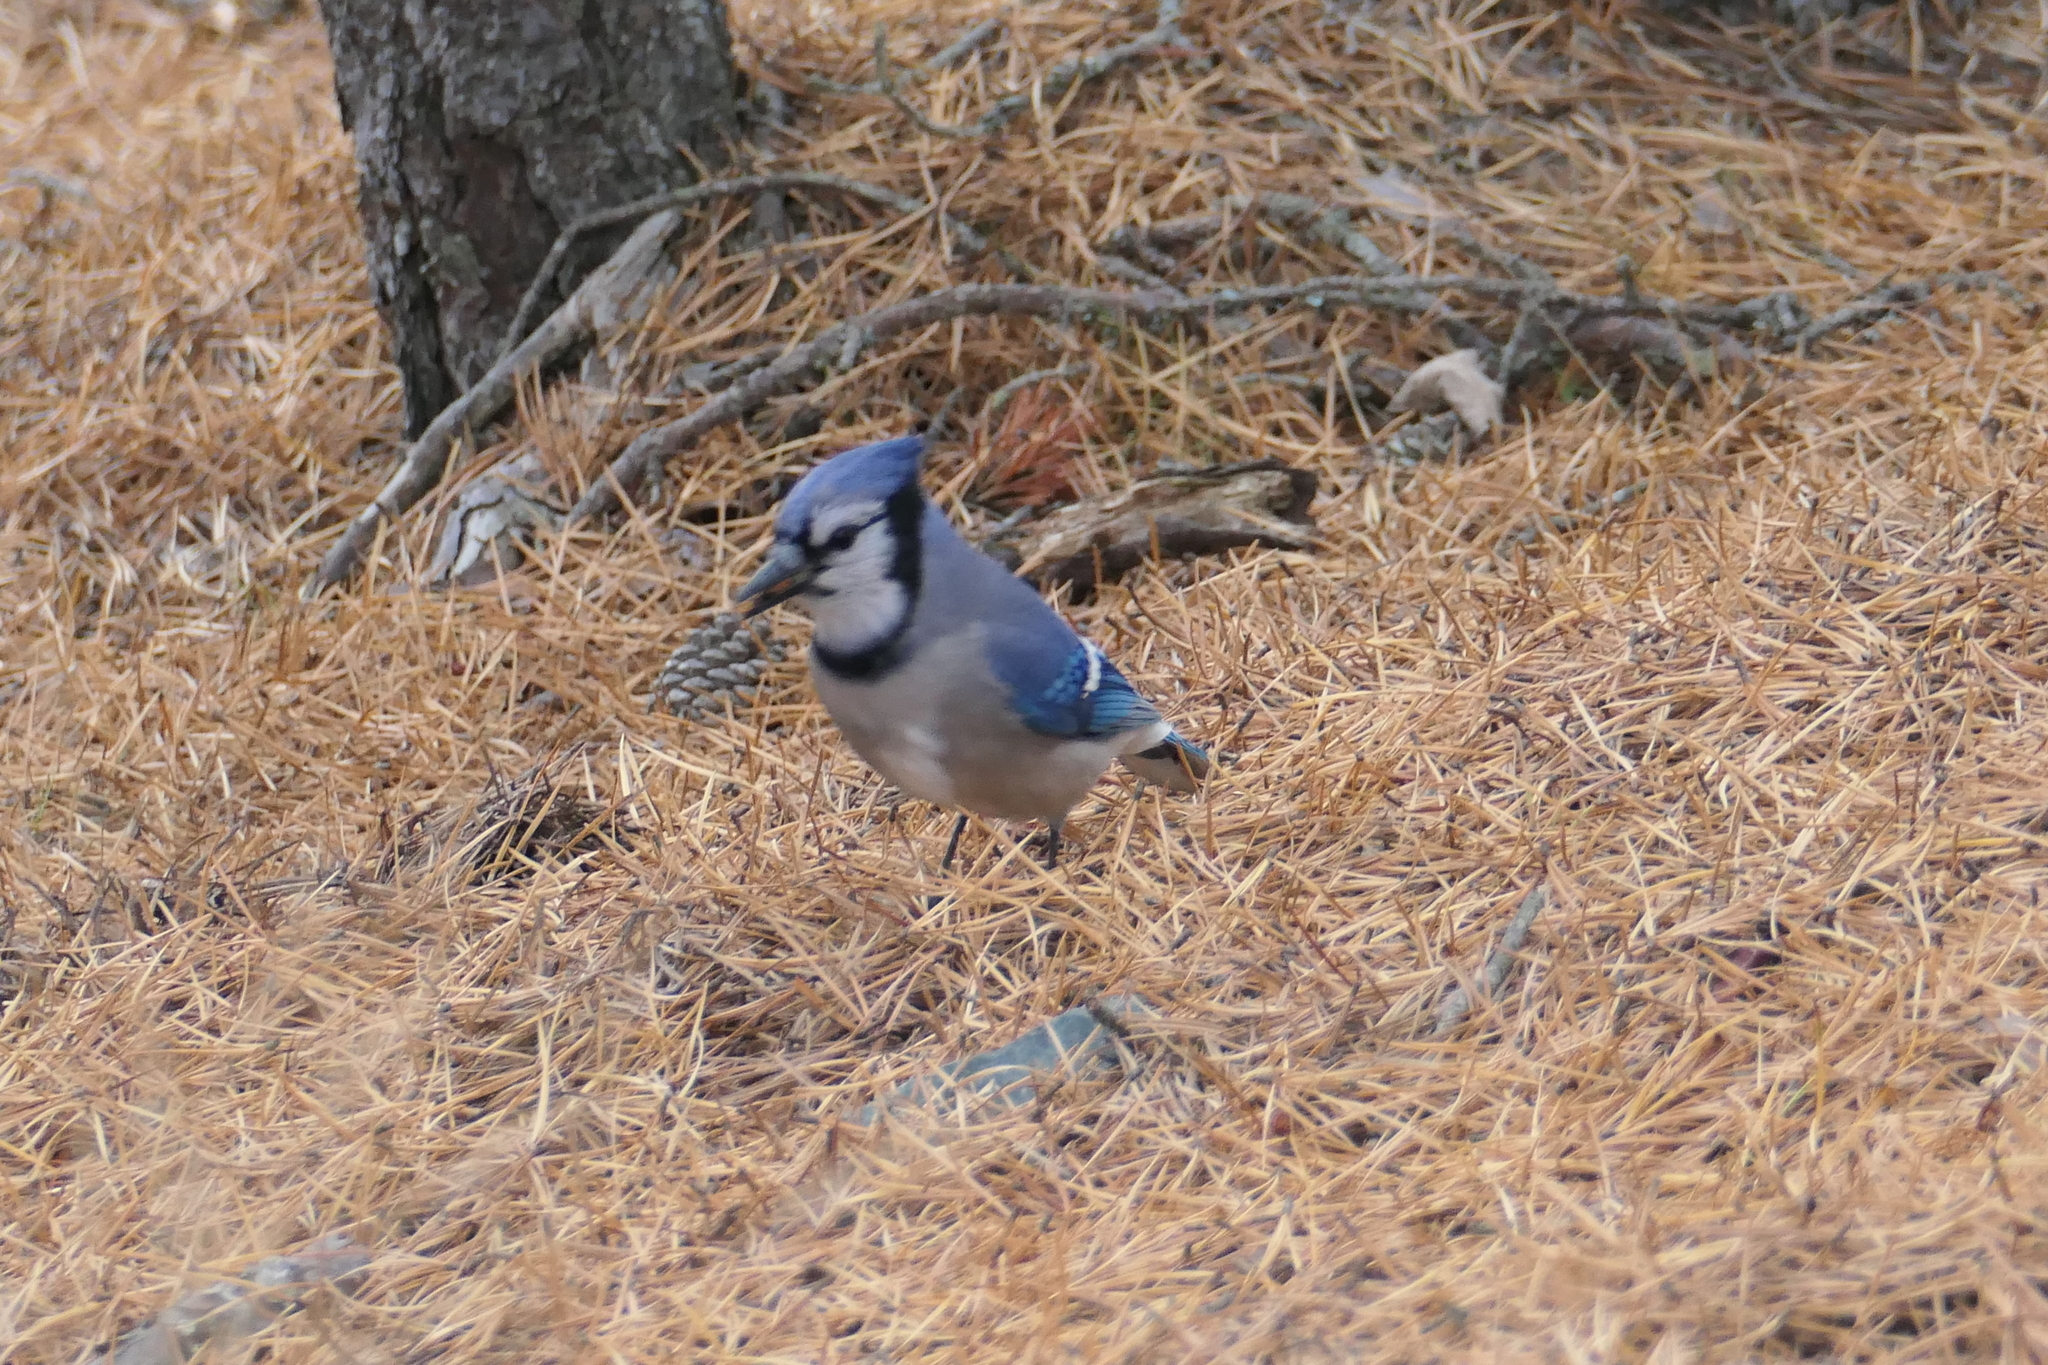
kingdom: Animalia
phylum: Chordata
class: Aves
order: Passeriformes
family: Corvidae
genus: Cyanocitta
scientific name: Cyanocitta cristata
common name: Blue jay
